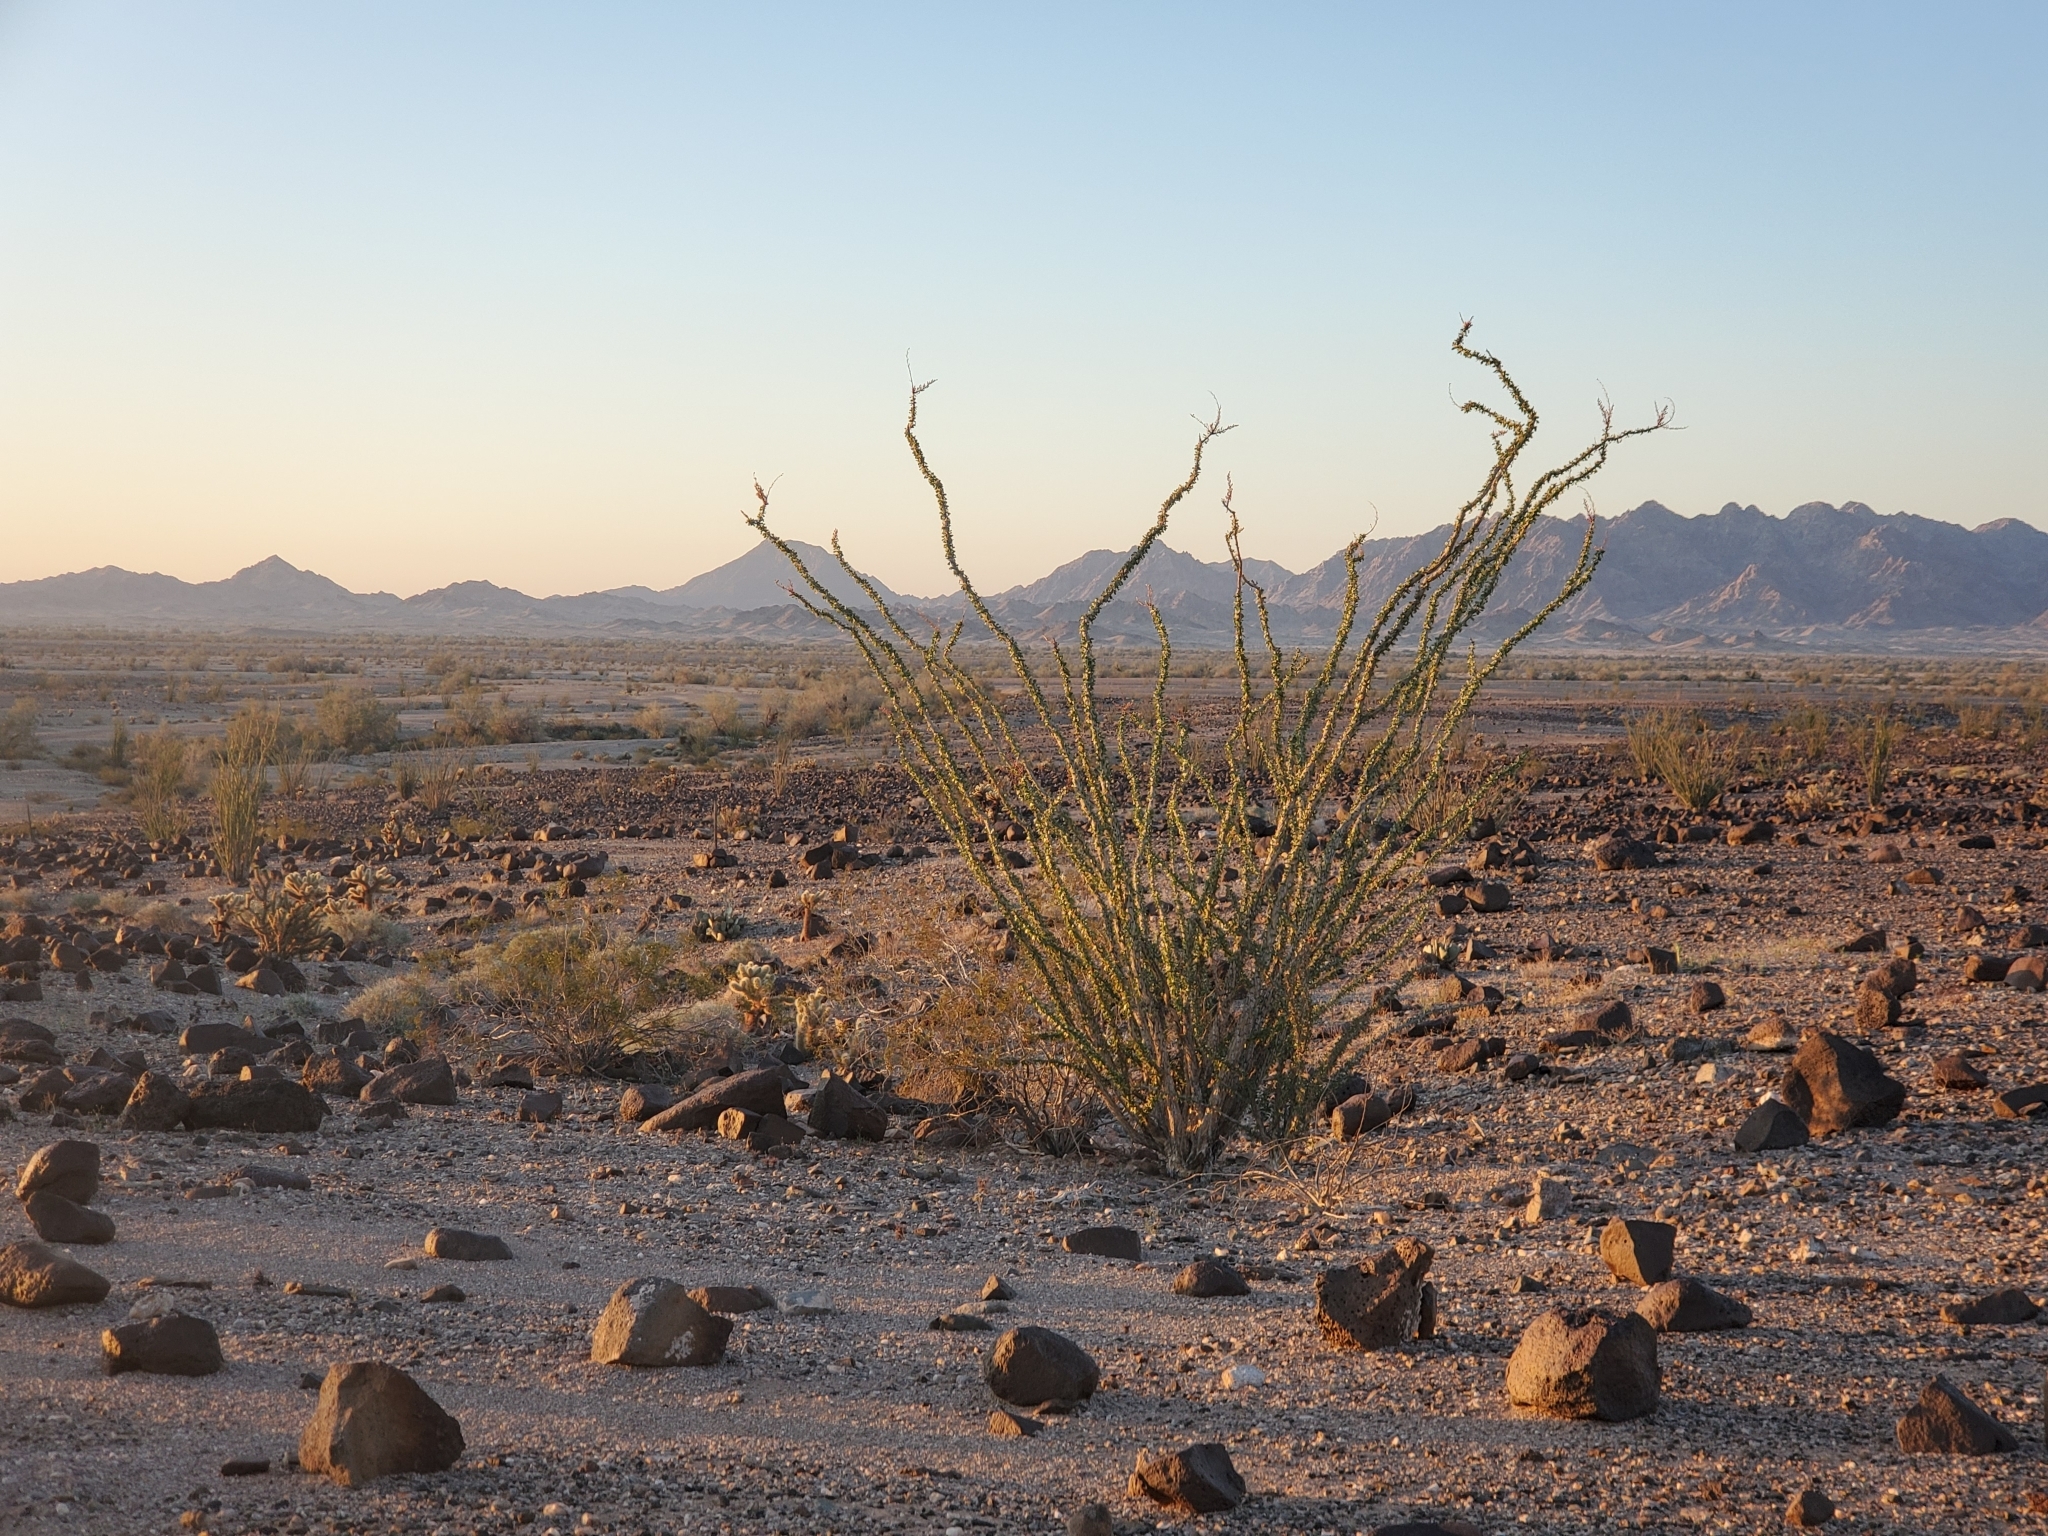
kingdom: Plantae
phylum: Tracheophyta
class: Magnoliopsida
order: Ericales
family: Fouquieriaceae
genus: Fouquieria
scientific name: Fouquieria splendens
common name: Vine-cactus
